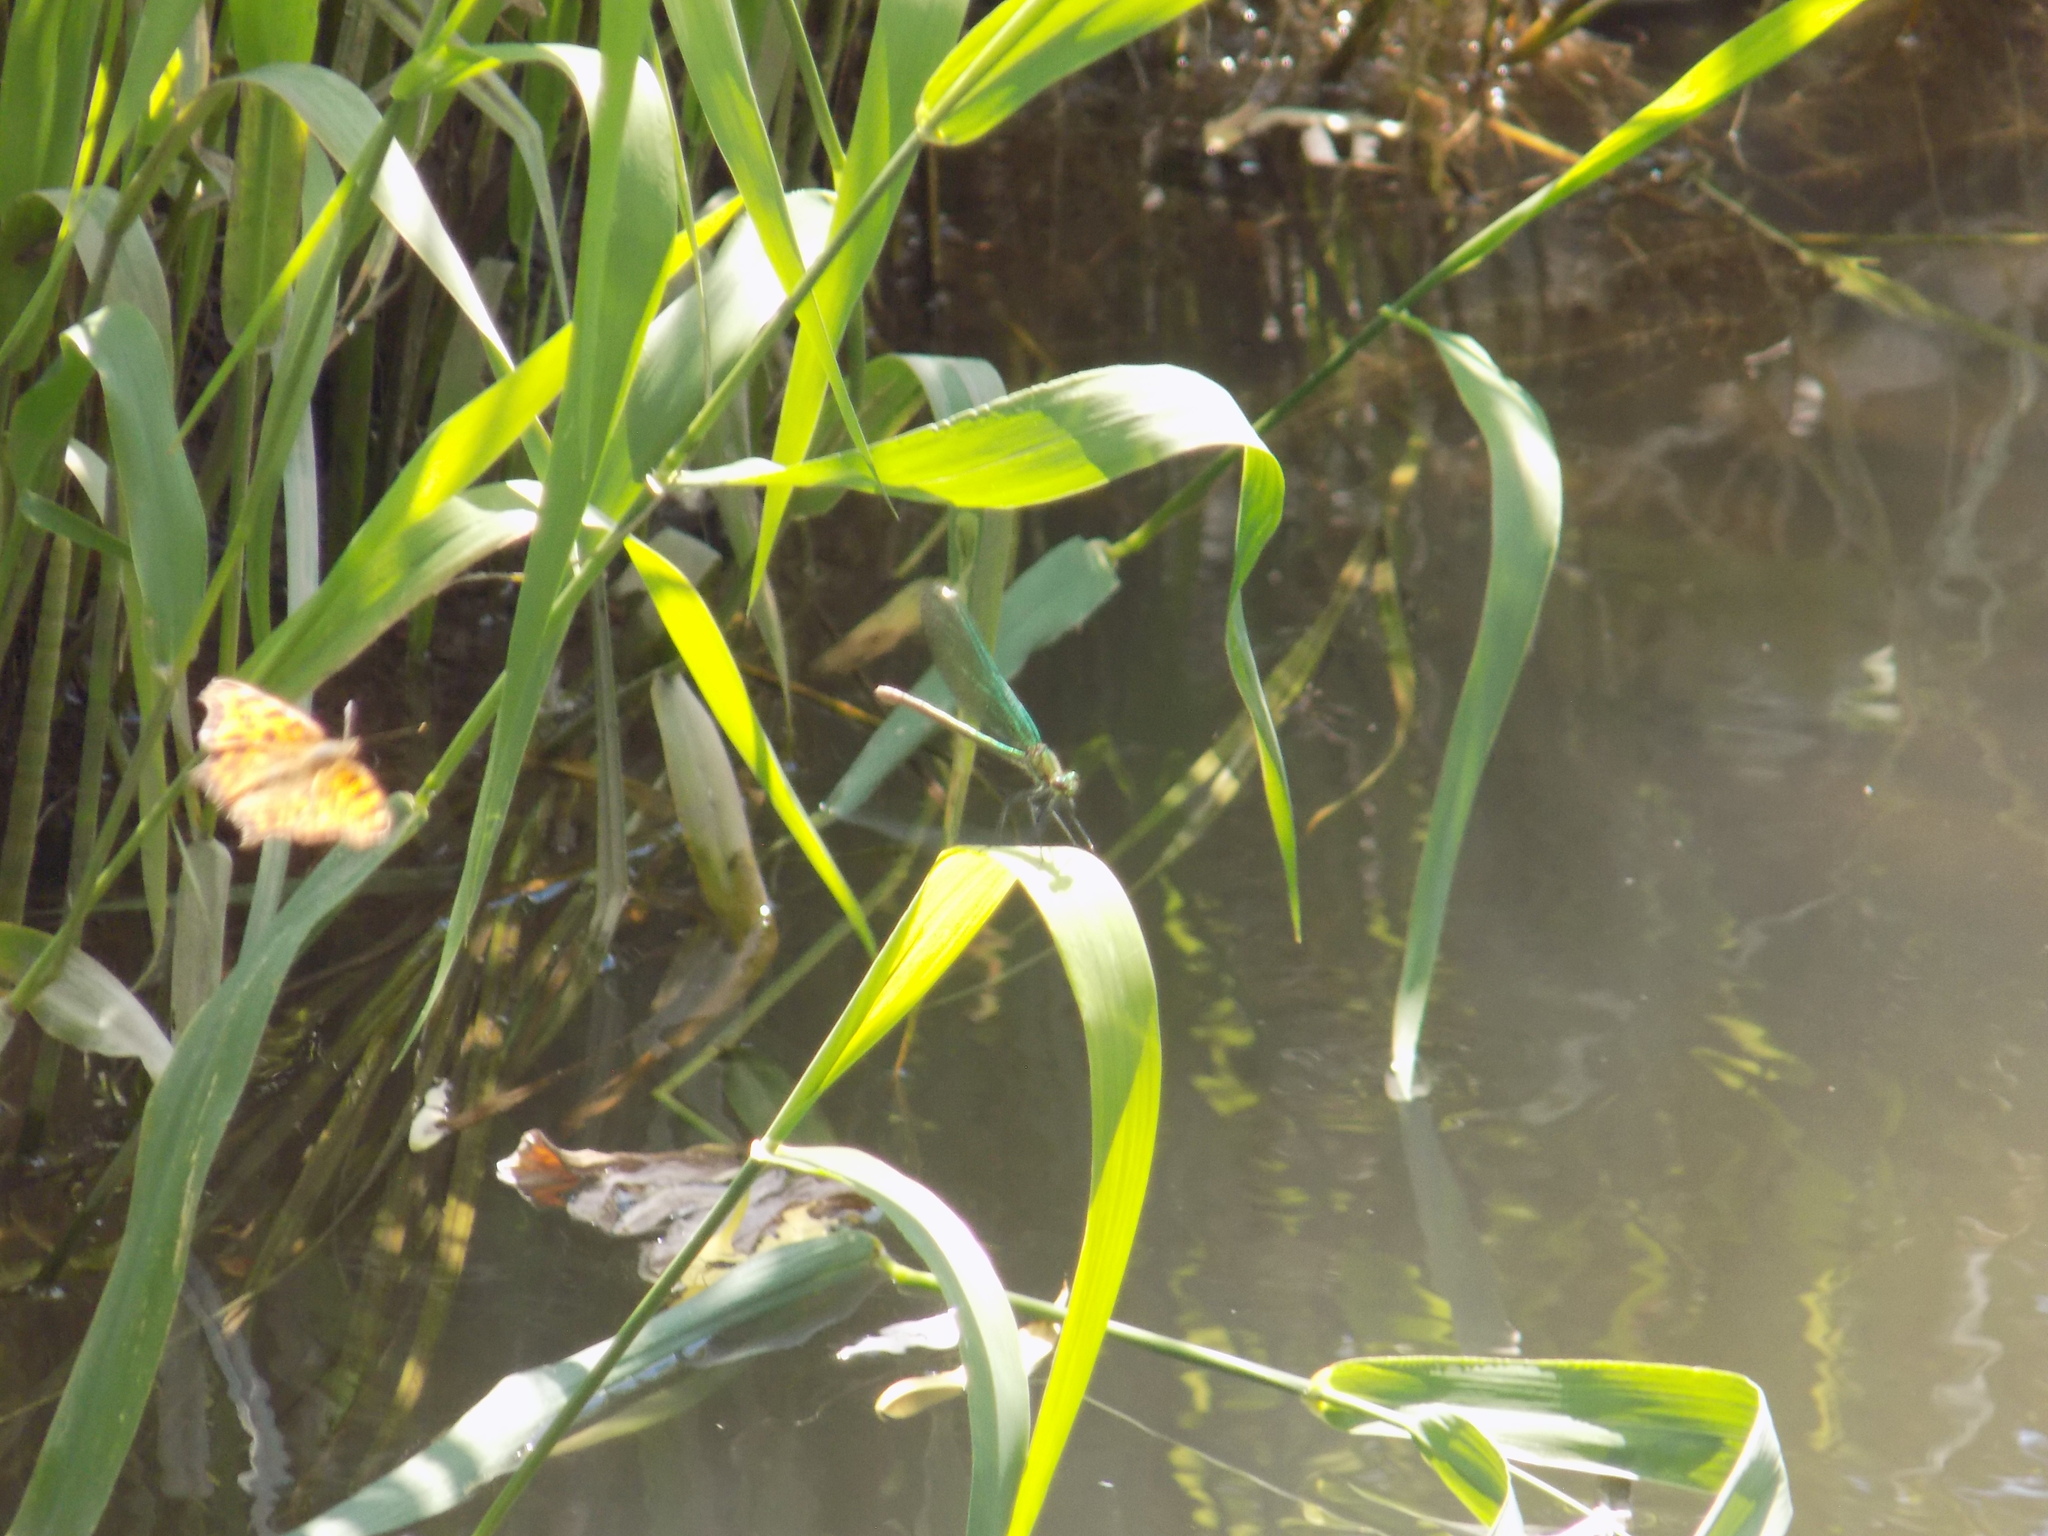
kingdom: Animalia
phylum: Arthropoda
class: Insecta
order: Odonata
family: Calopterygidae
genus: Calopteryx
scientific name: Calopteryx splendens
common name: Banded demoiselle
